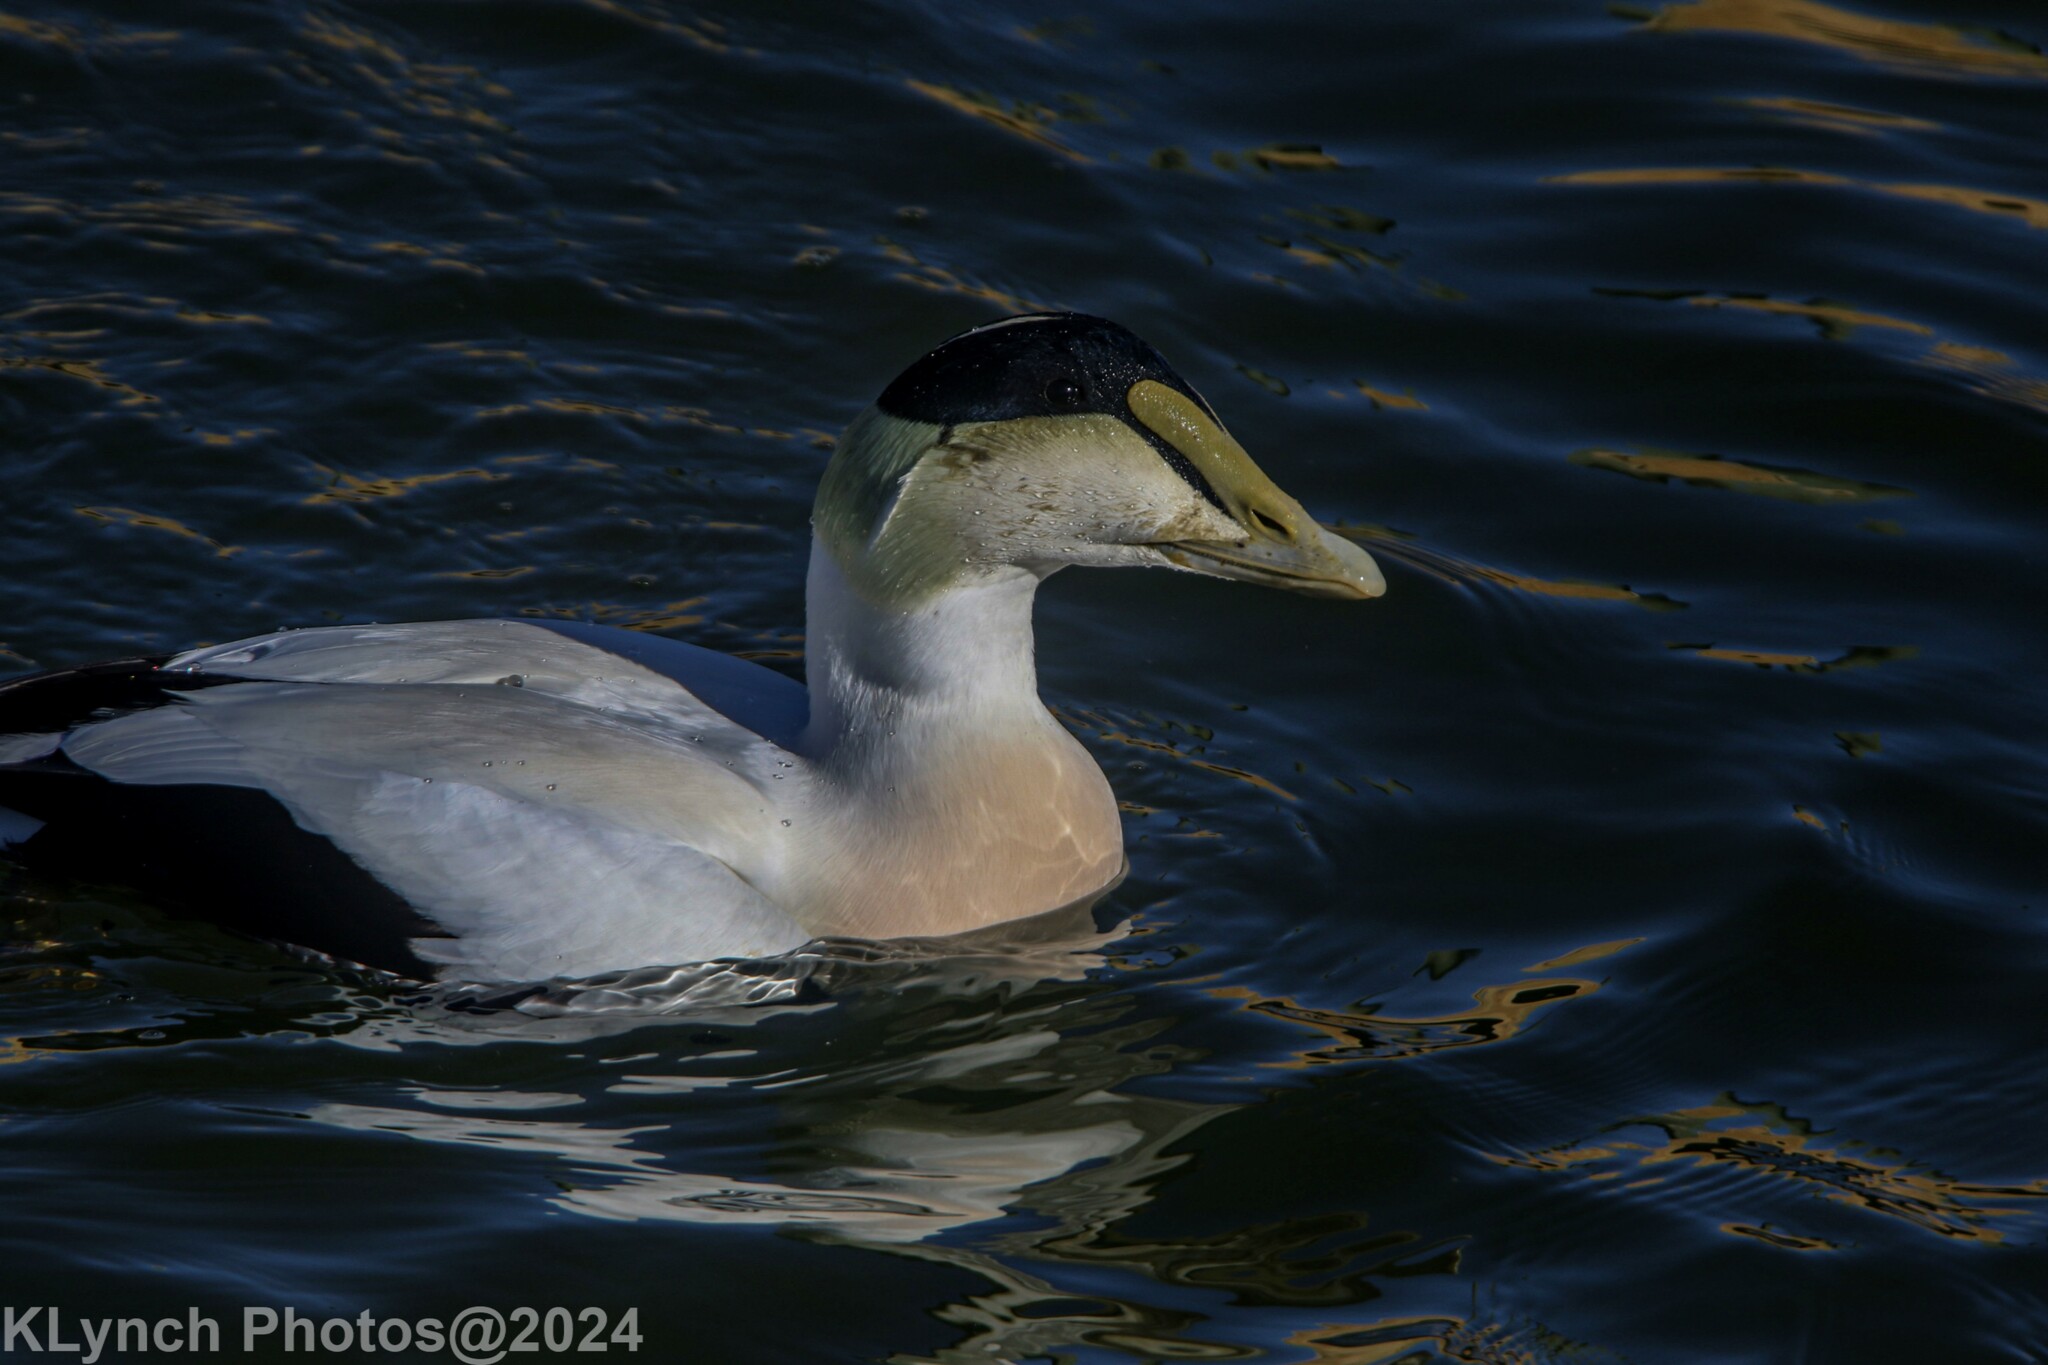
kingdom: Animalia
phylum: Chordata
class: Aves
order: Anseriformes
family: Anatidae
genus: Somateria
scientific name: Somateria mollissima
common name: Common eider
